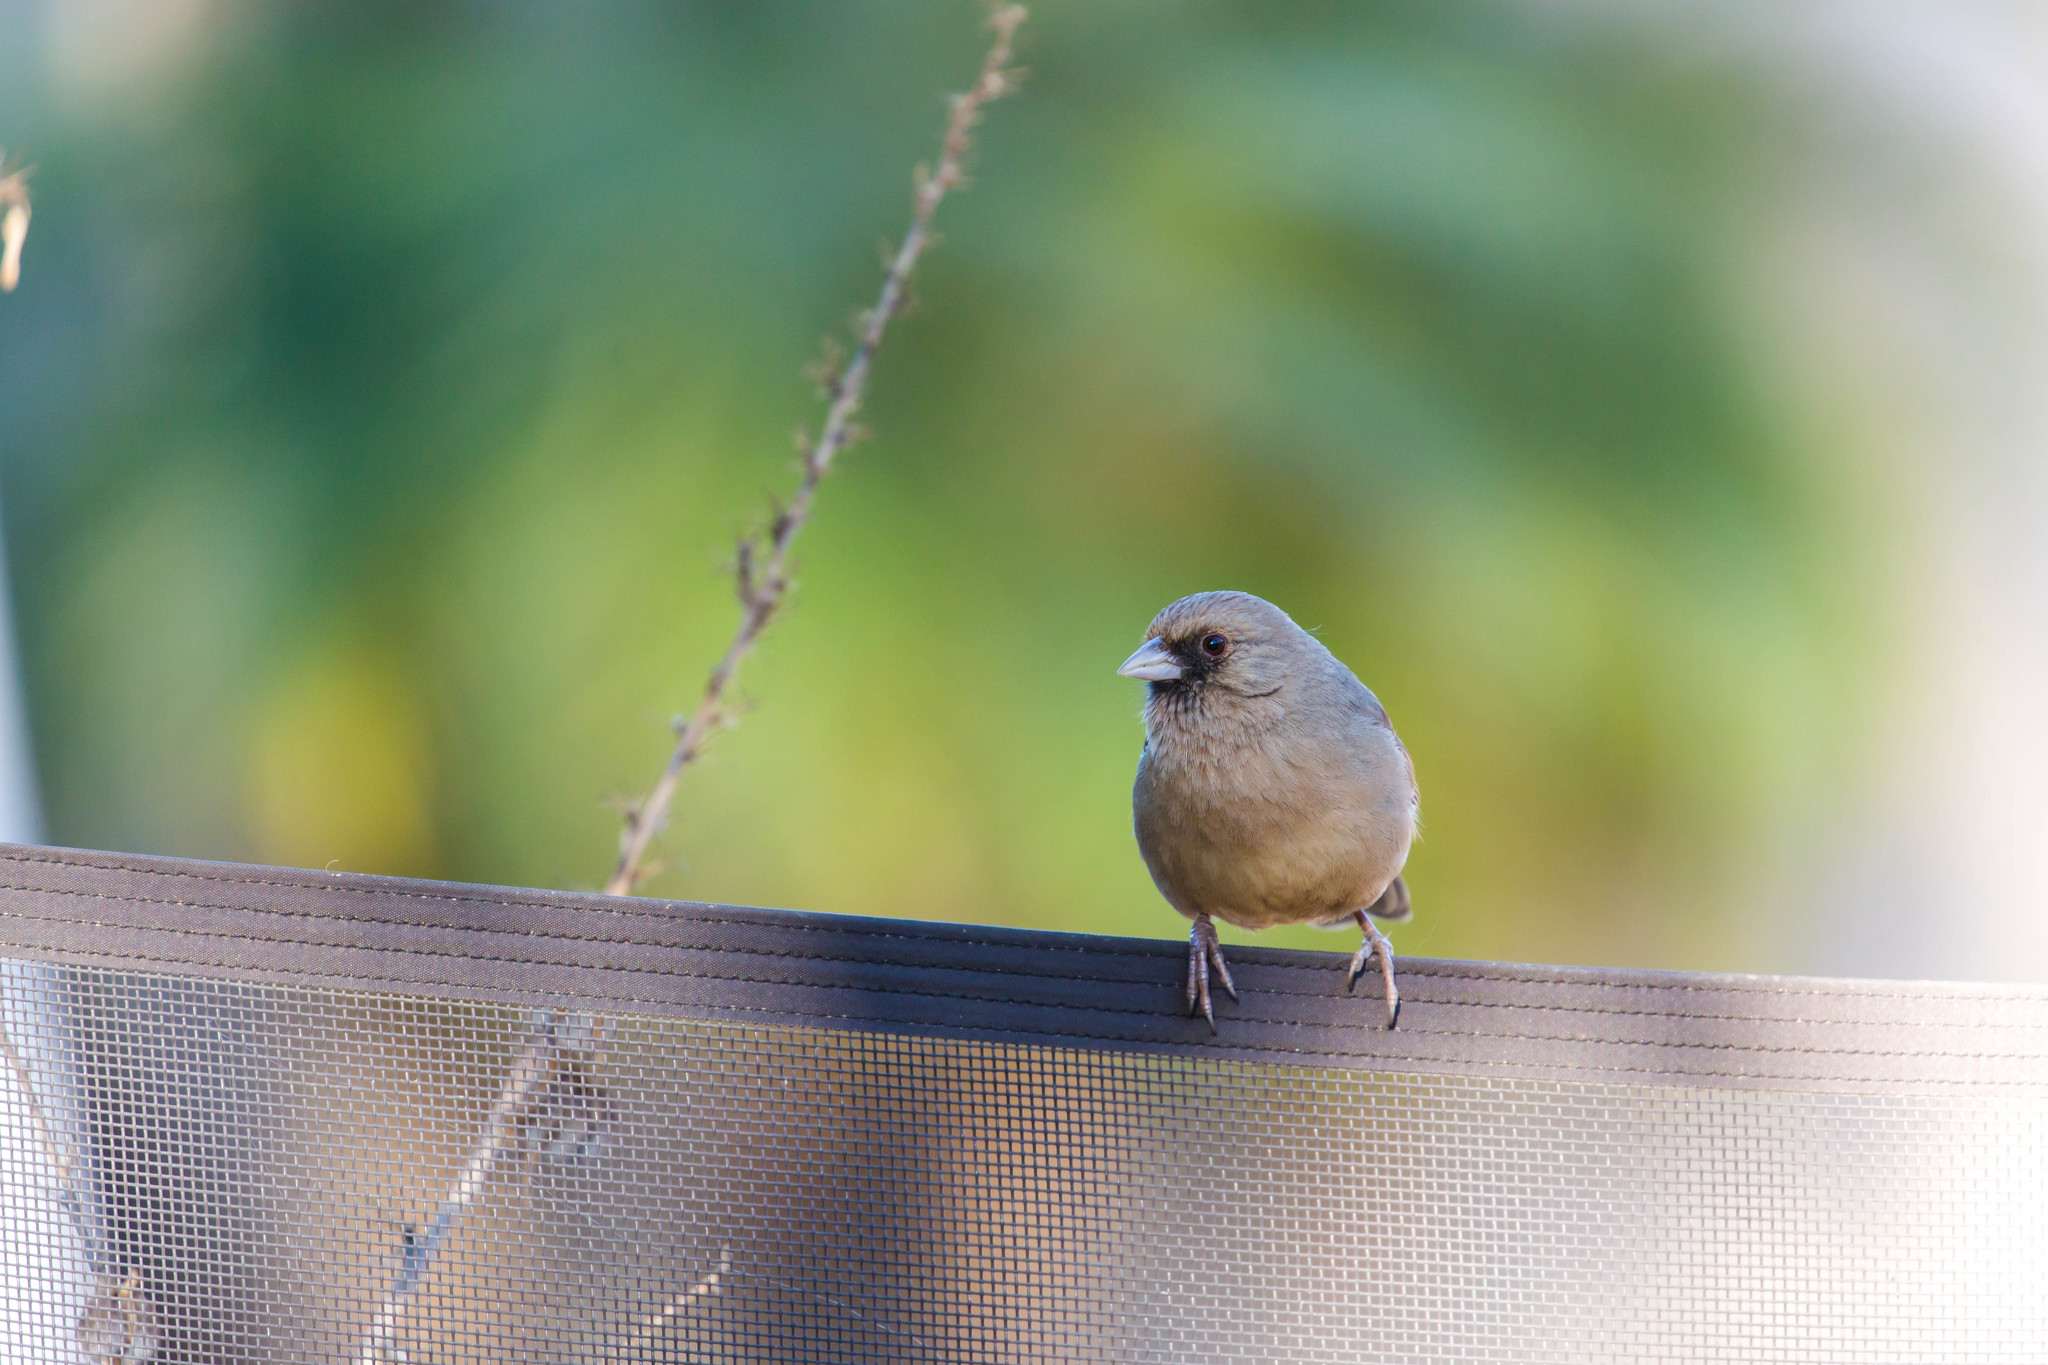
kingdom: Animalia
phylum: Chordata
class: Aves
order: Passeriformes
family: Passerellidae
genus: Melozone
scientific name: Melozone aberti
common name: Abert's towhee
